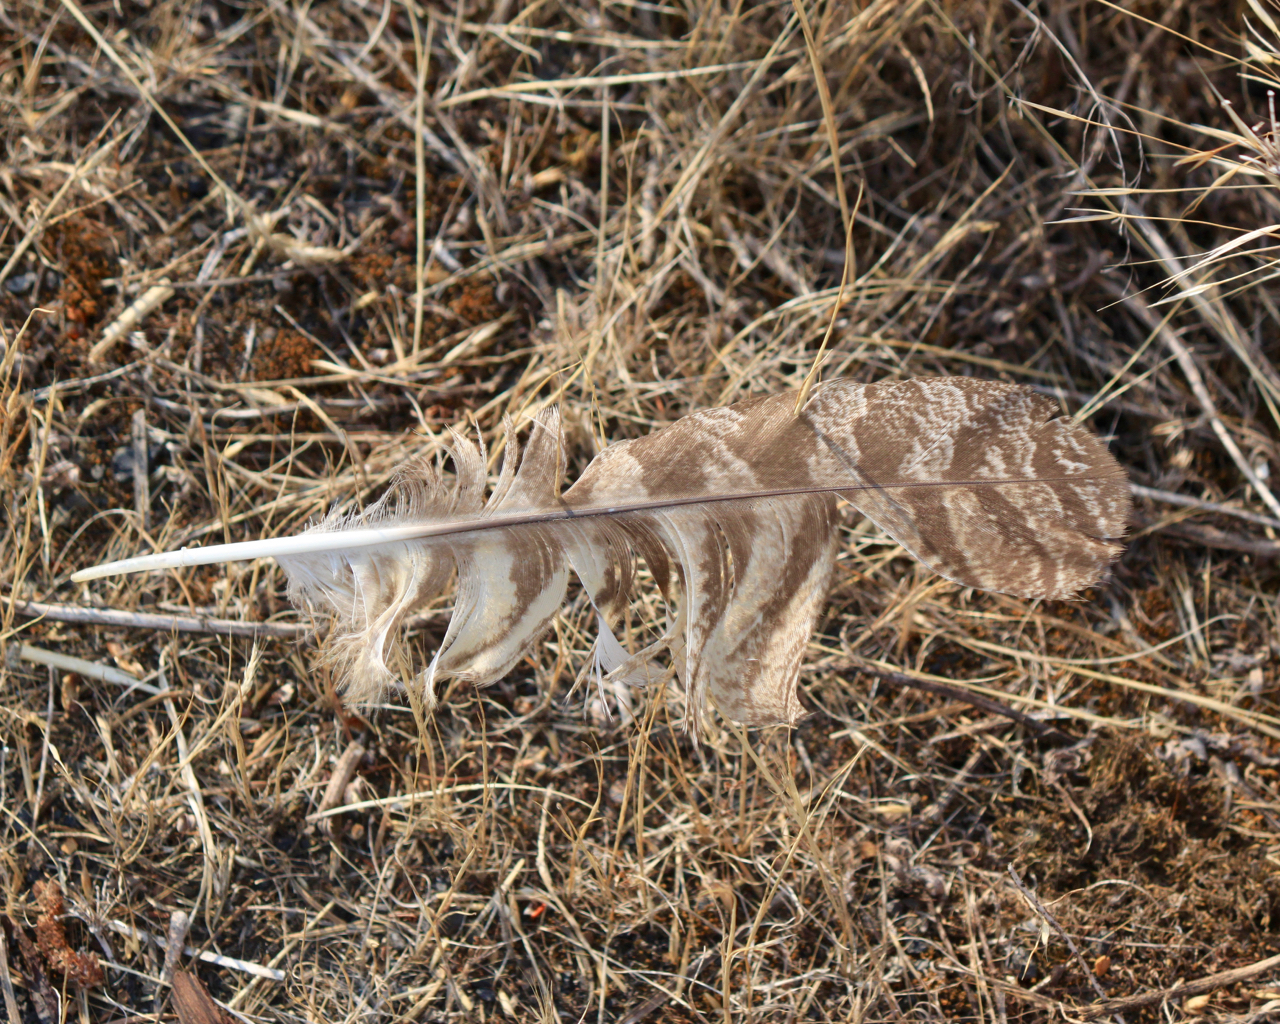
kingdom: Animalia
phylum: Chordata
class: Aves
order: Strigiformes
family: Strigidae
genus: Bubo
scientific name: Bubo virginianus
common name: Great horned owl
